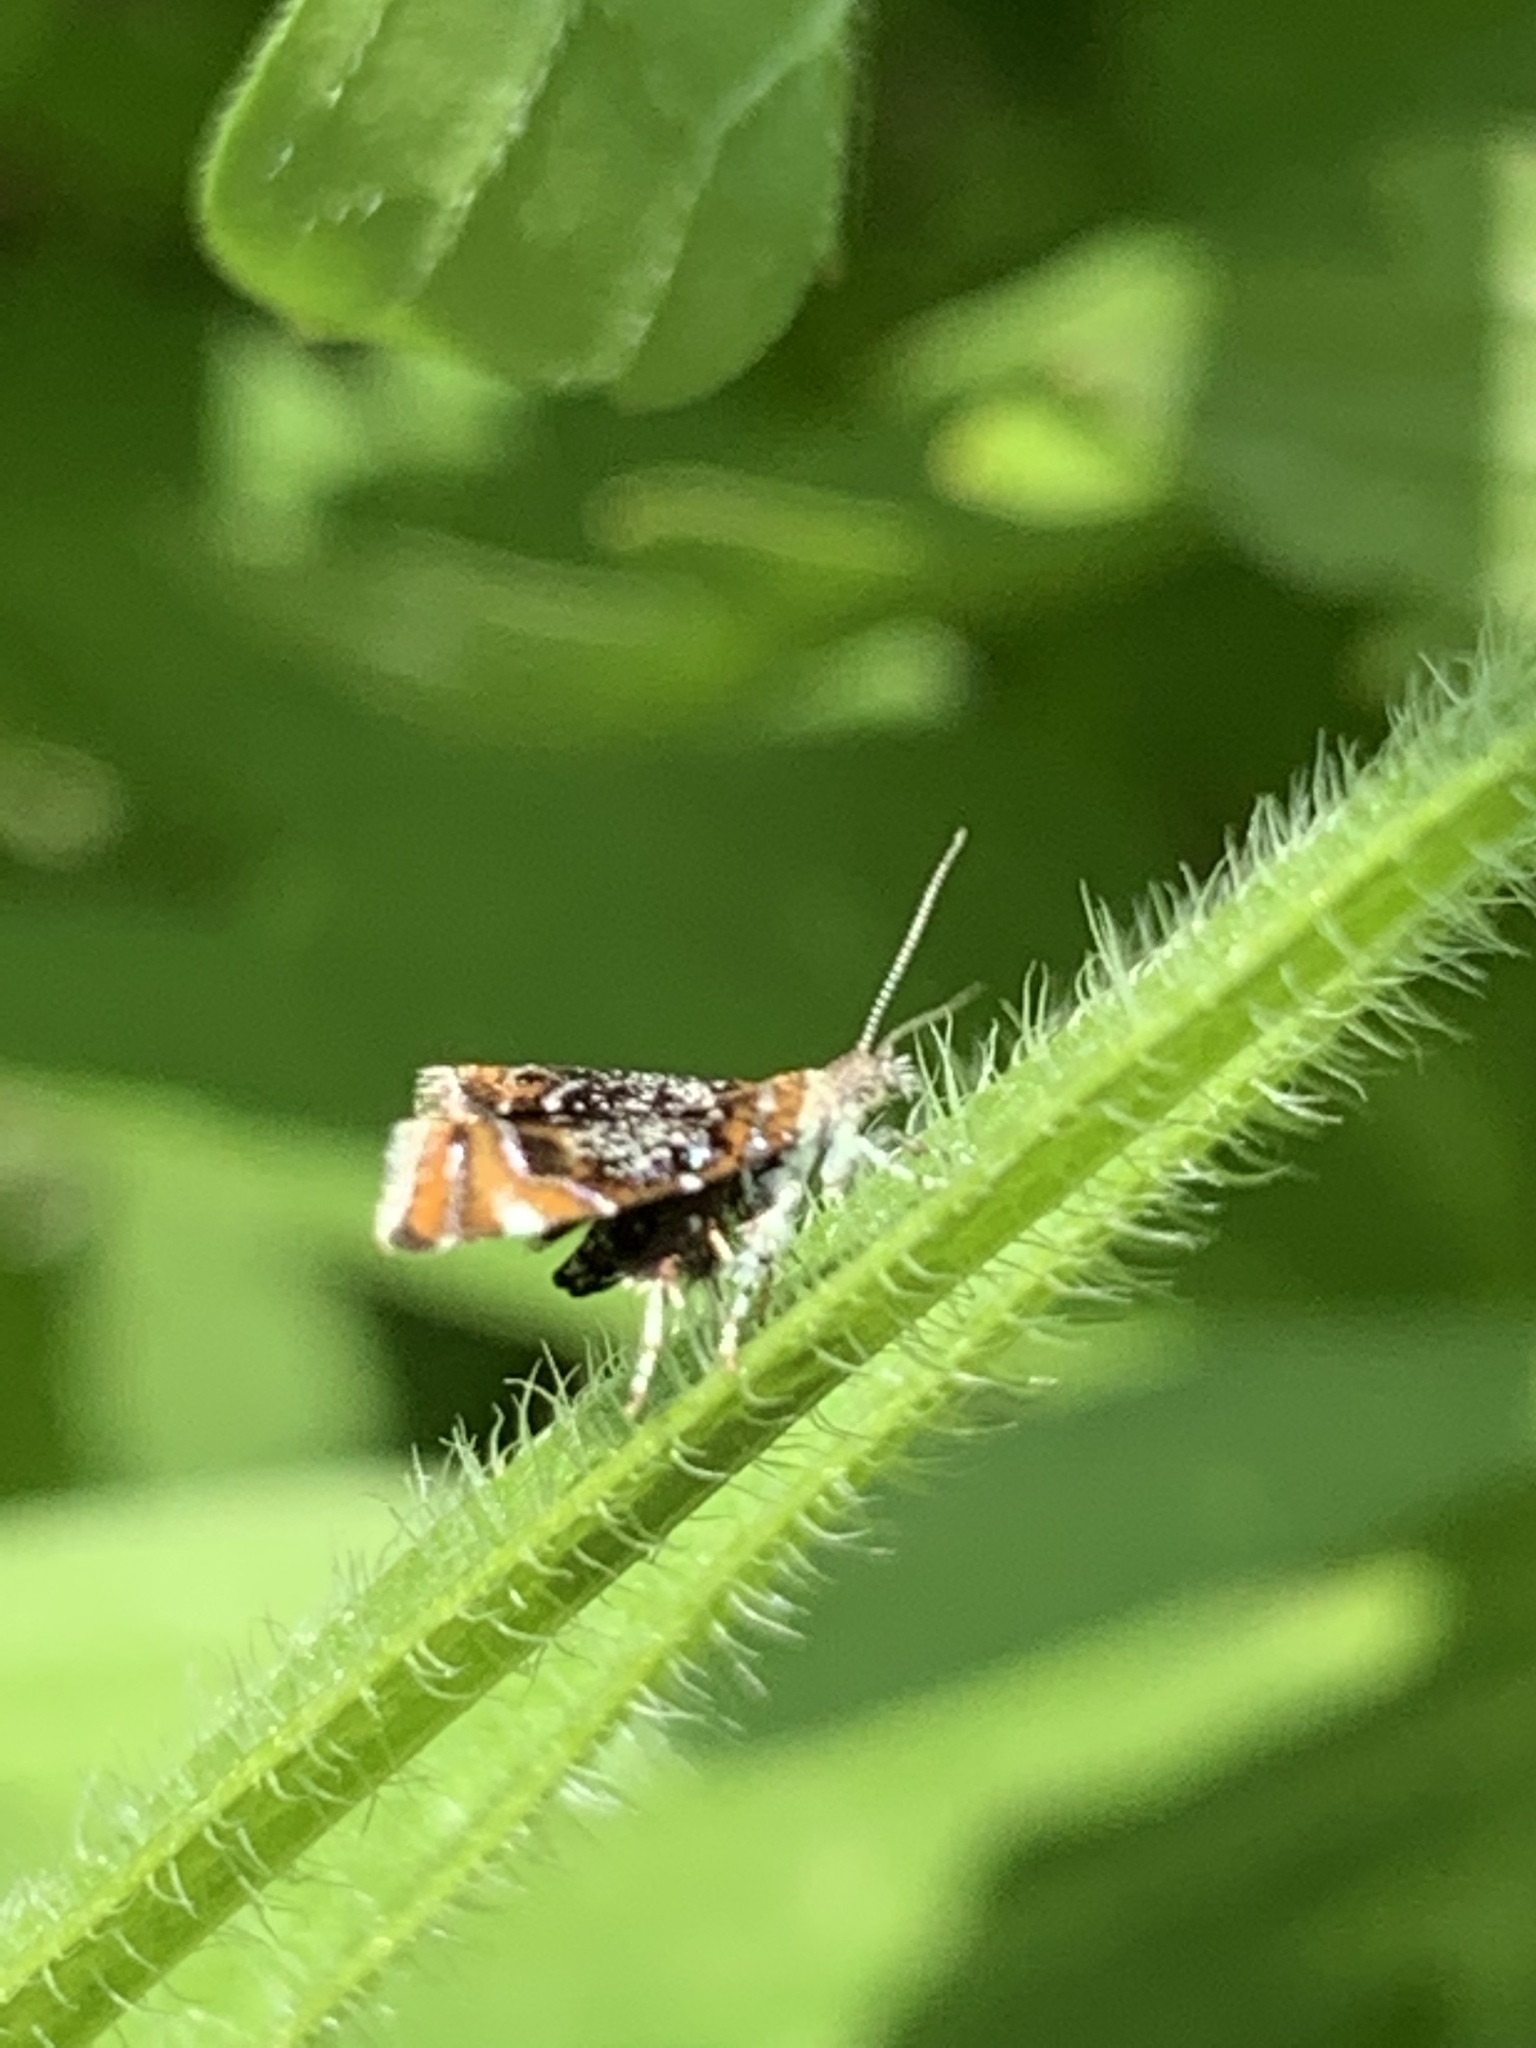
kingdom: Animalia
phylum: Arthropoda
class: Insecta
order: Lepidoptera
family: Choreutidae
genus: Prochoreutis
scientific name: Prochoreutis inflatella
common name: Skullcap skeletonizer moth
